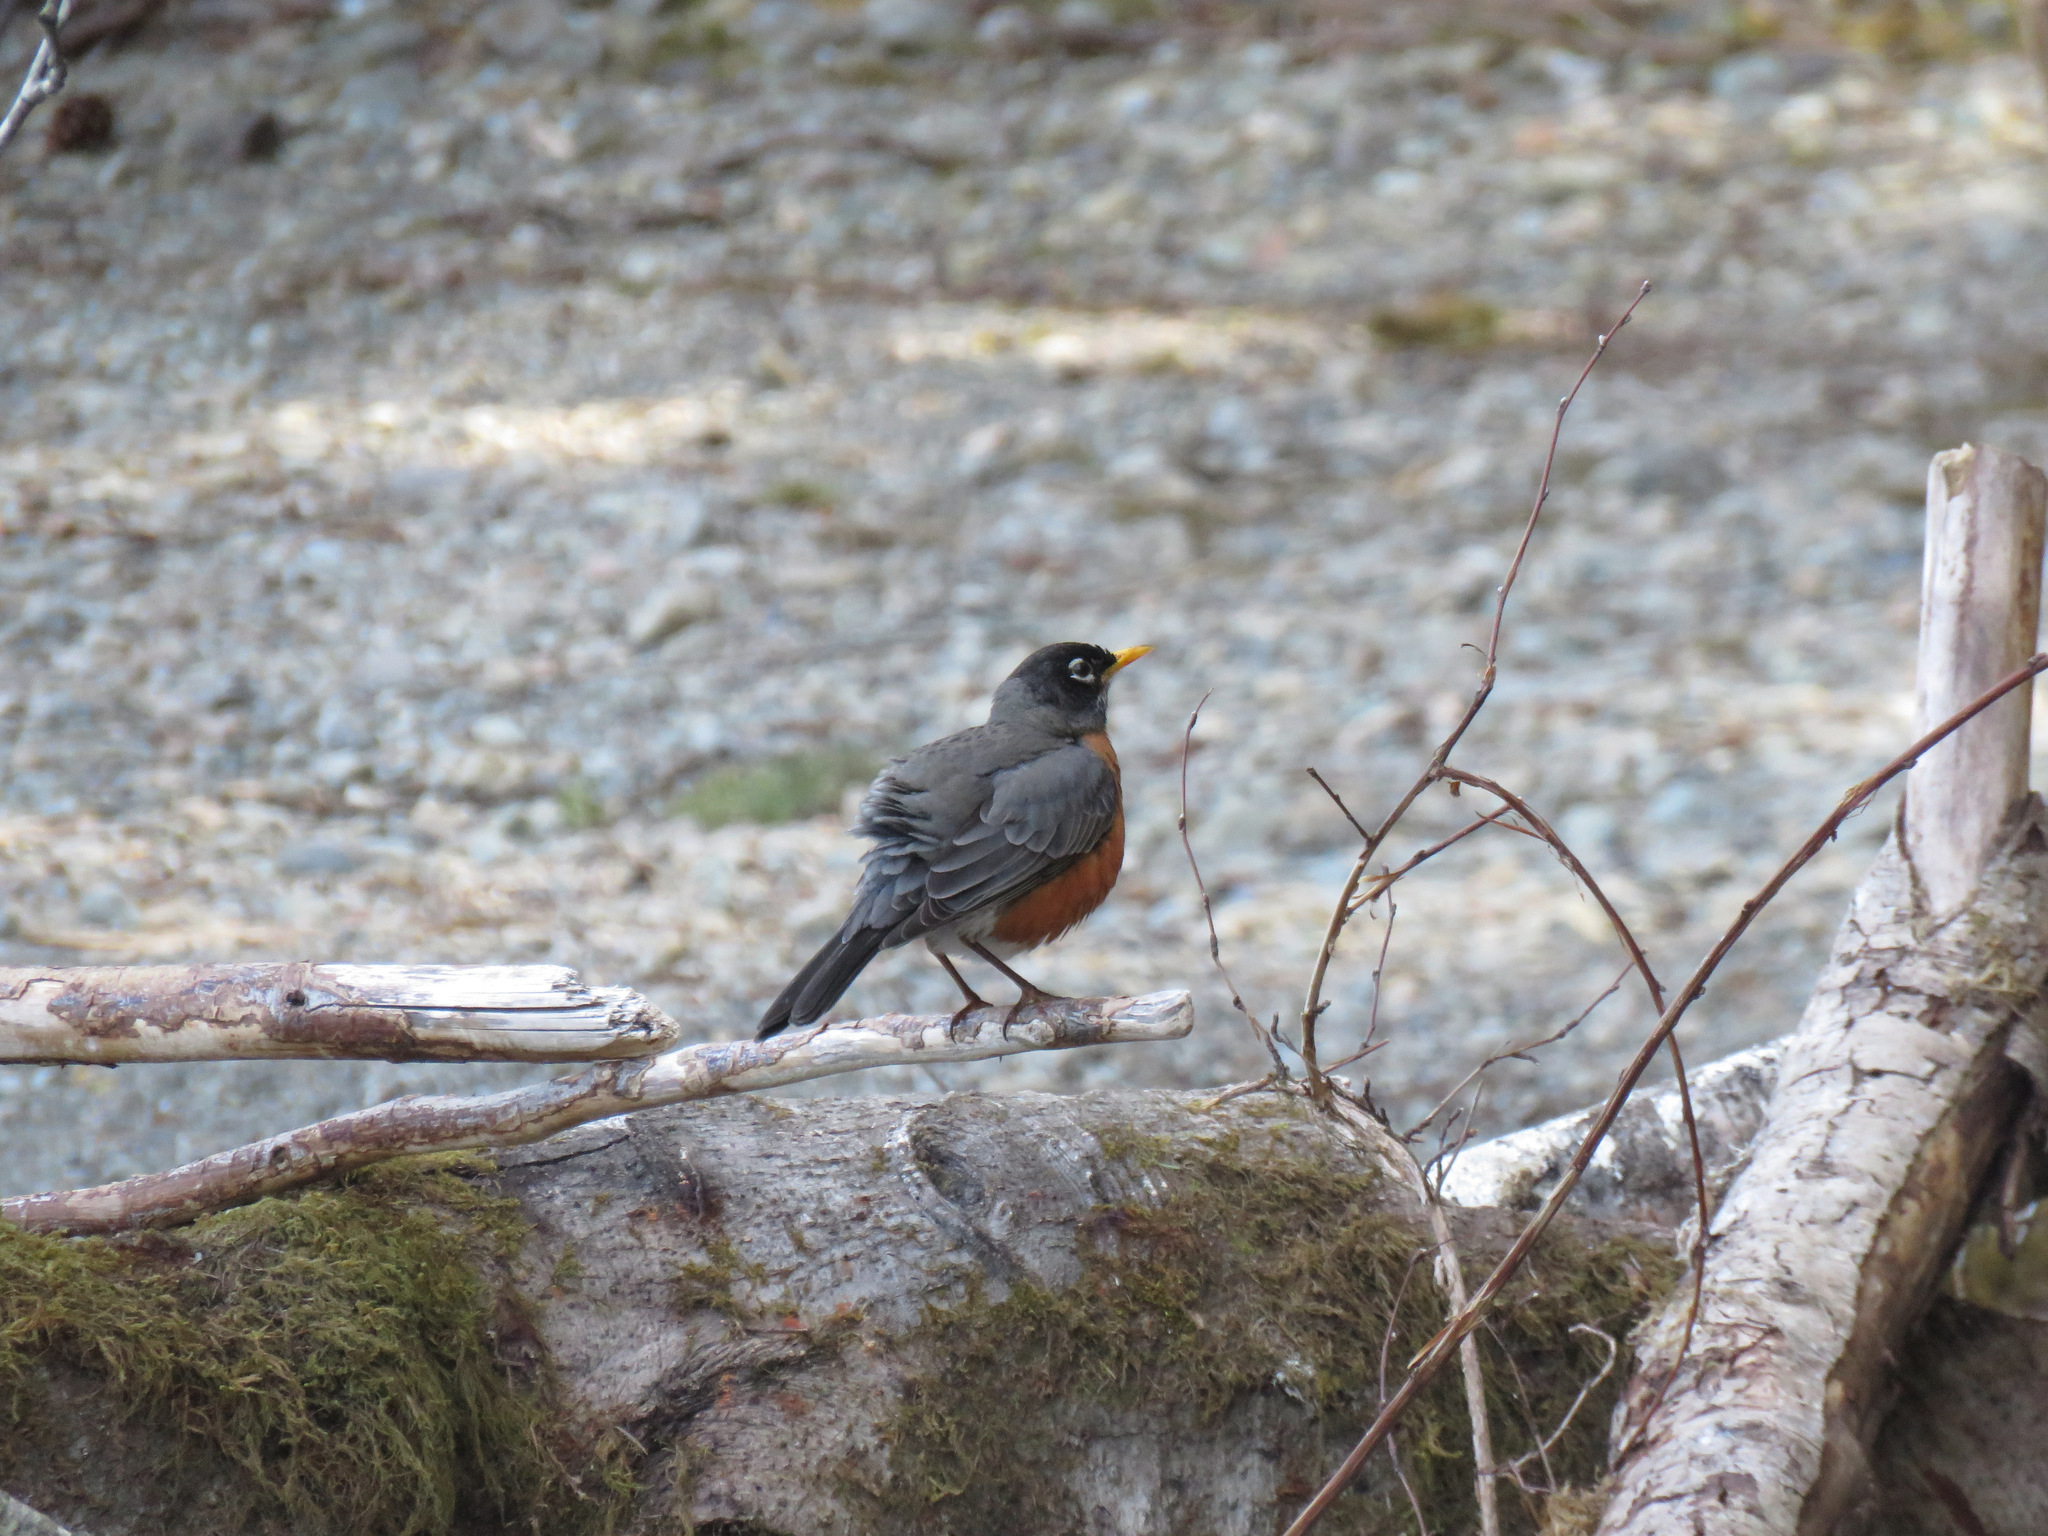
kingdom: Animalia
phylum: Chordata
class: Aves
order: Passeriformes
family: Turdidae
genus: Turdus
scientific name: Turdus migratorius
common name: American robin
